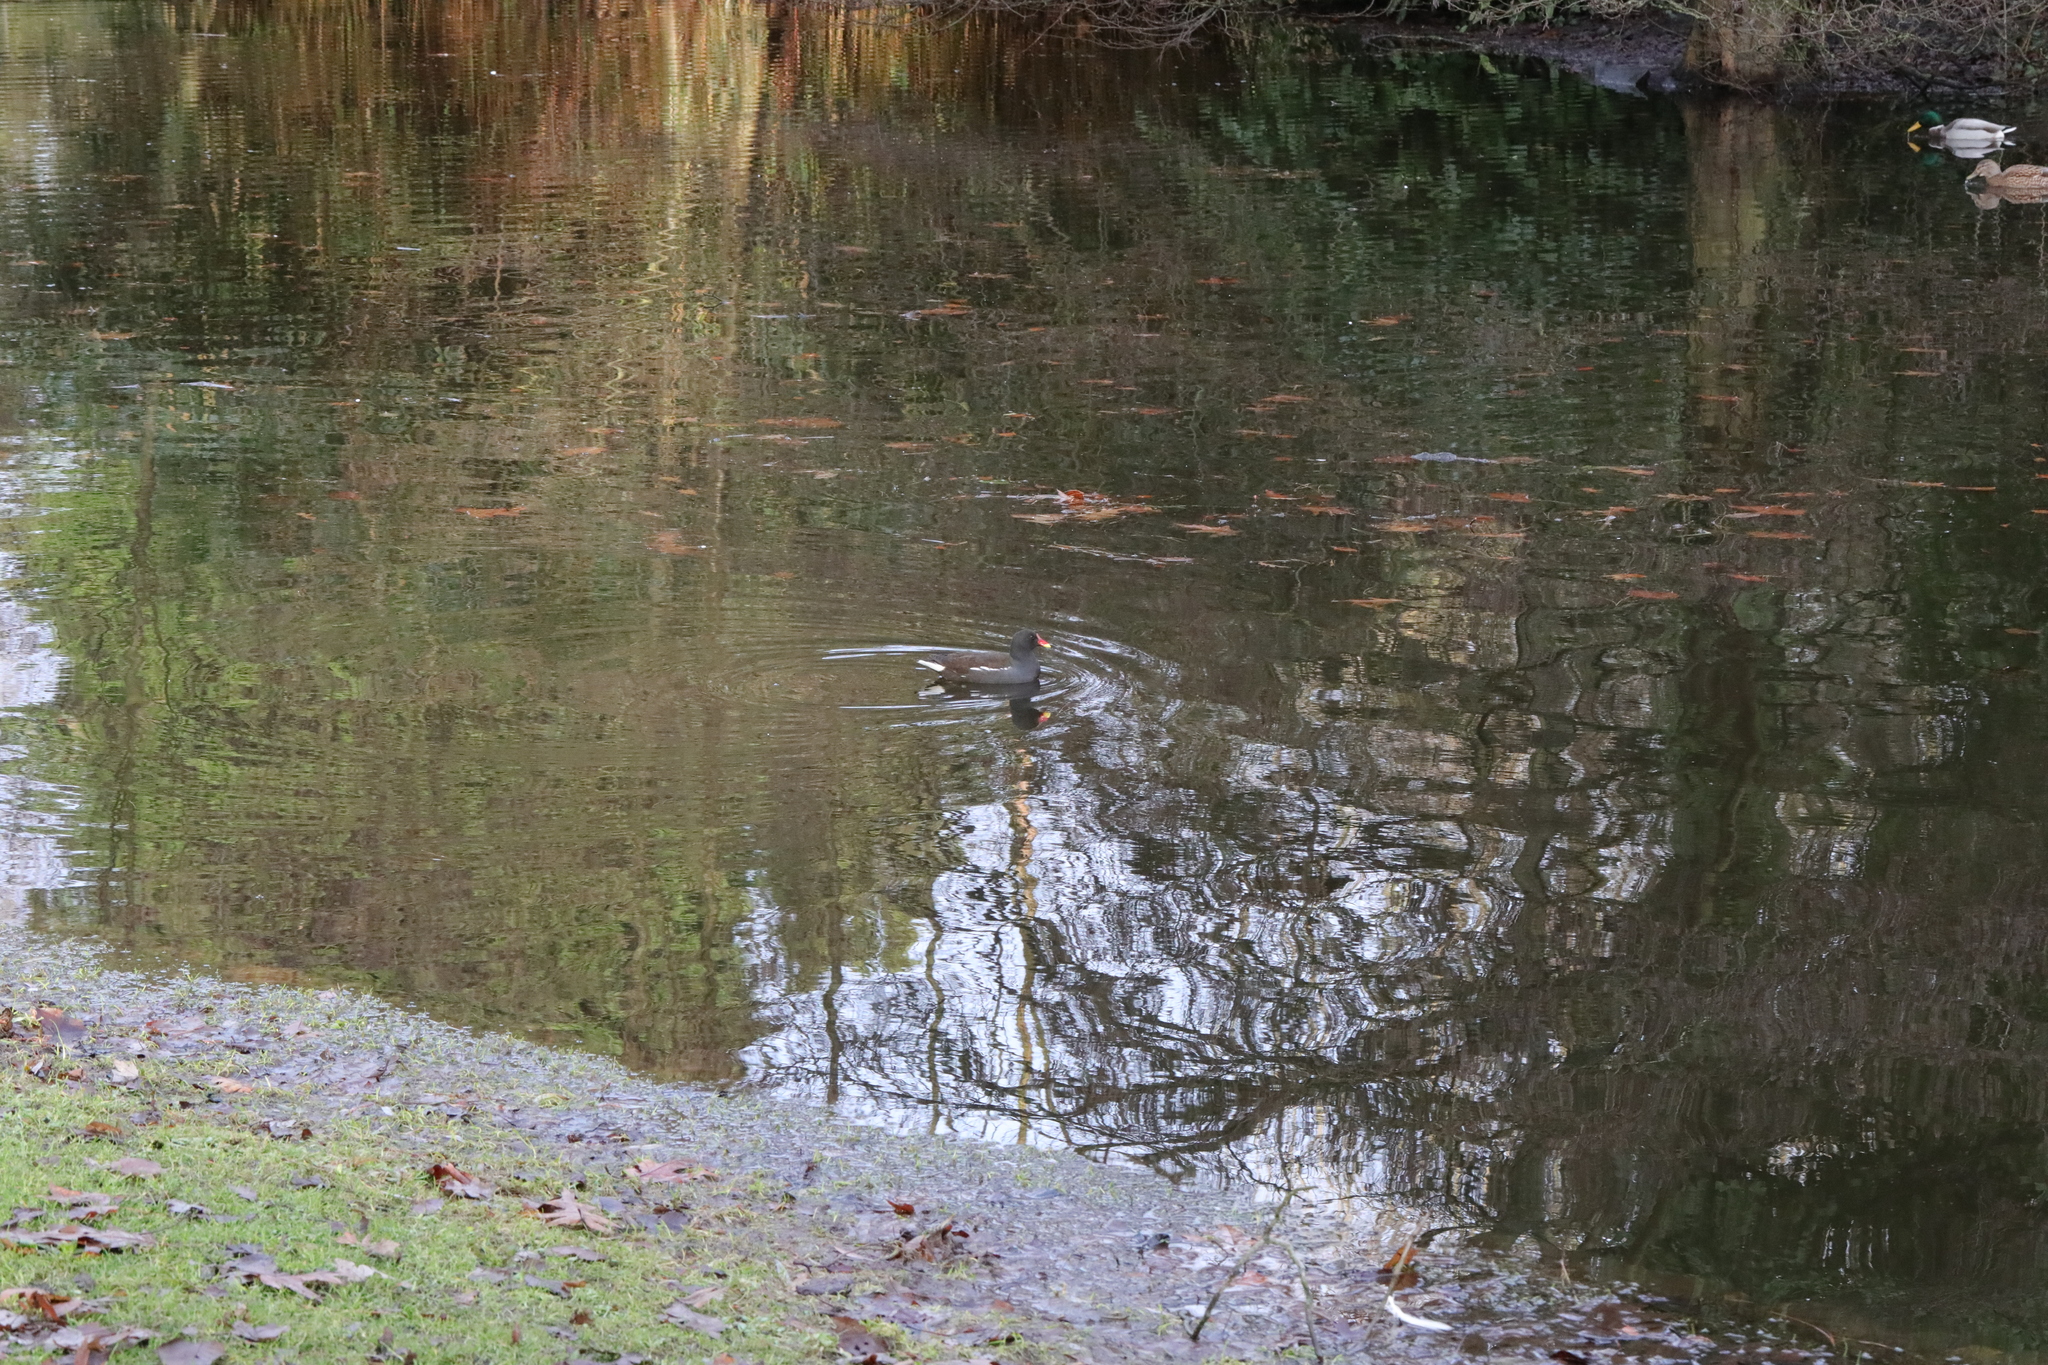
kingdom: Animalia
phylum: Chordata
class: Aves
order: Gruiformes
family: Rallidae
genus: Gallinula
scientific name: Gallinula chloropus
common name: Common moorhen
